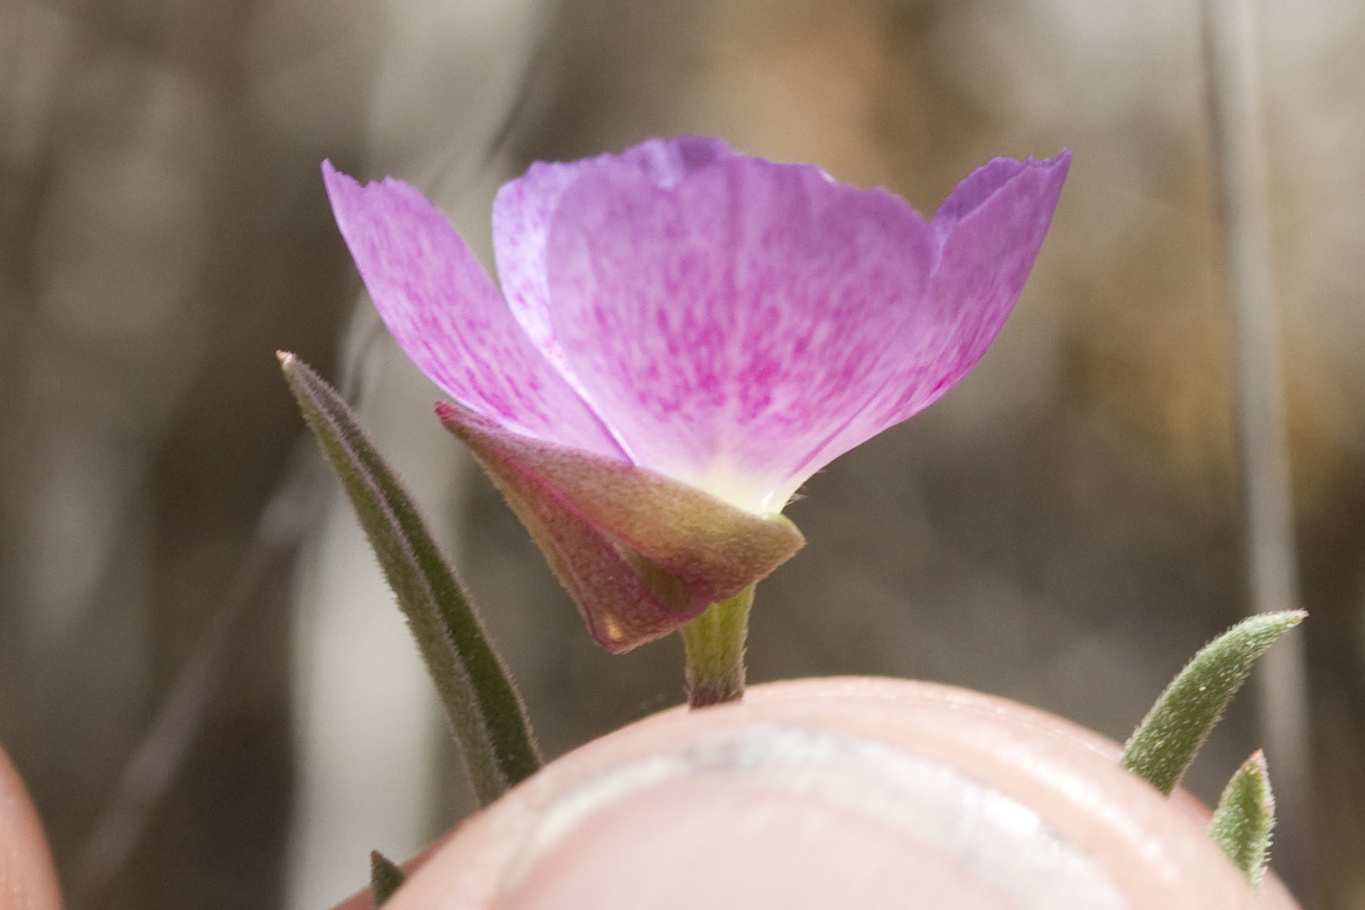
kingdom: Plantae
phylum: Tracheophyta
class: Magnoliopsida
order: Myrtales
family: Onagraceae
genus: Clarkia
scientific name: Clarkia affinis
